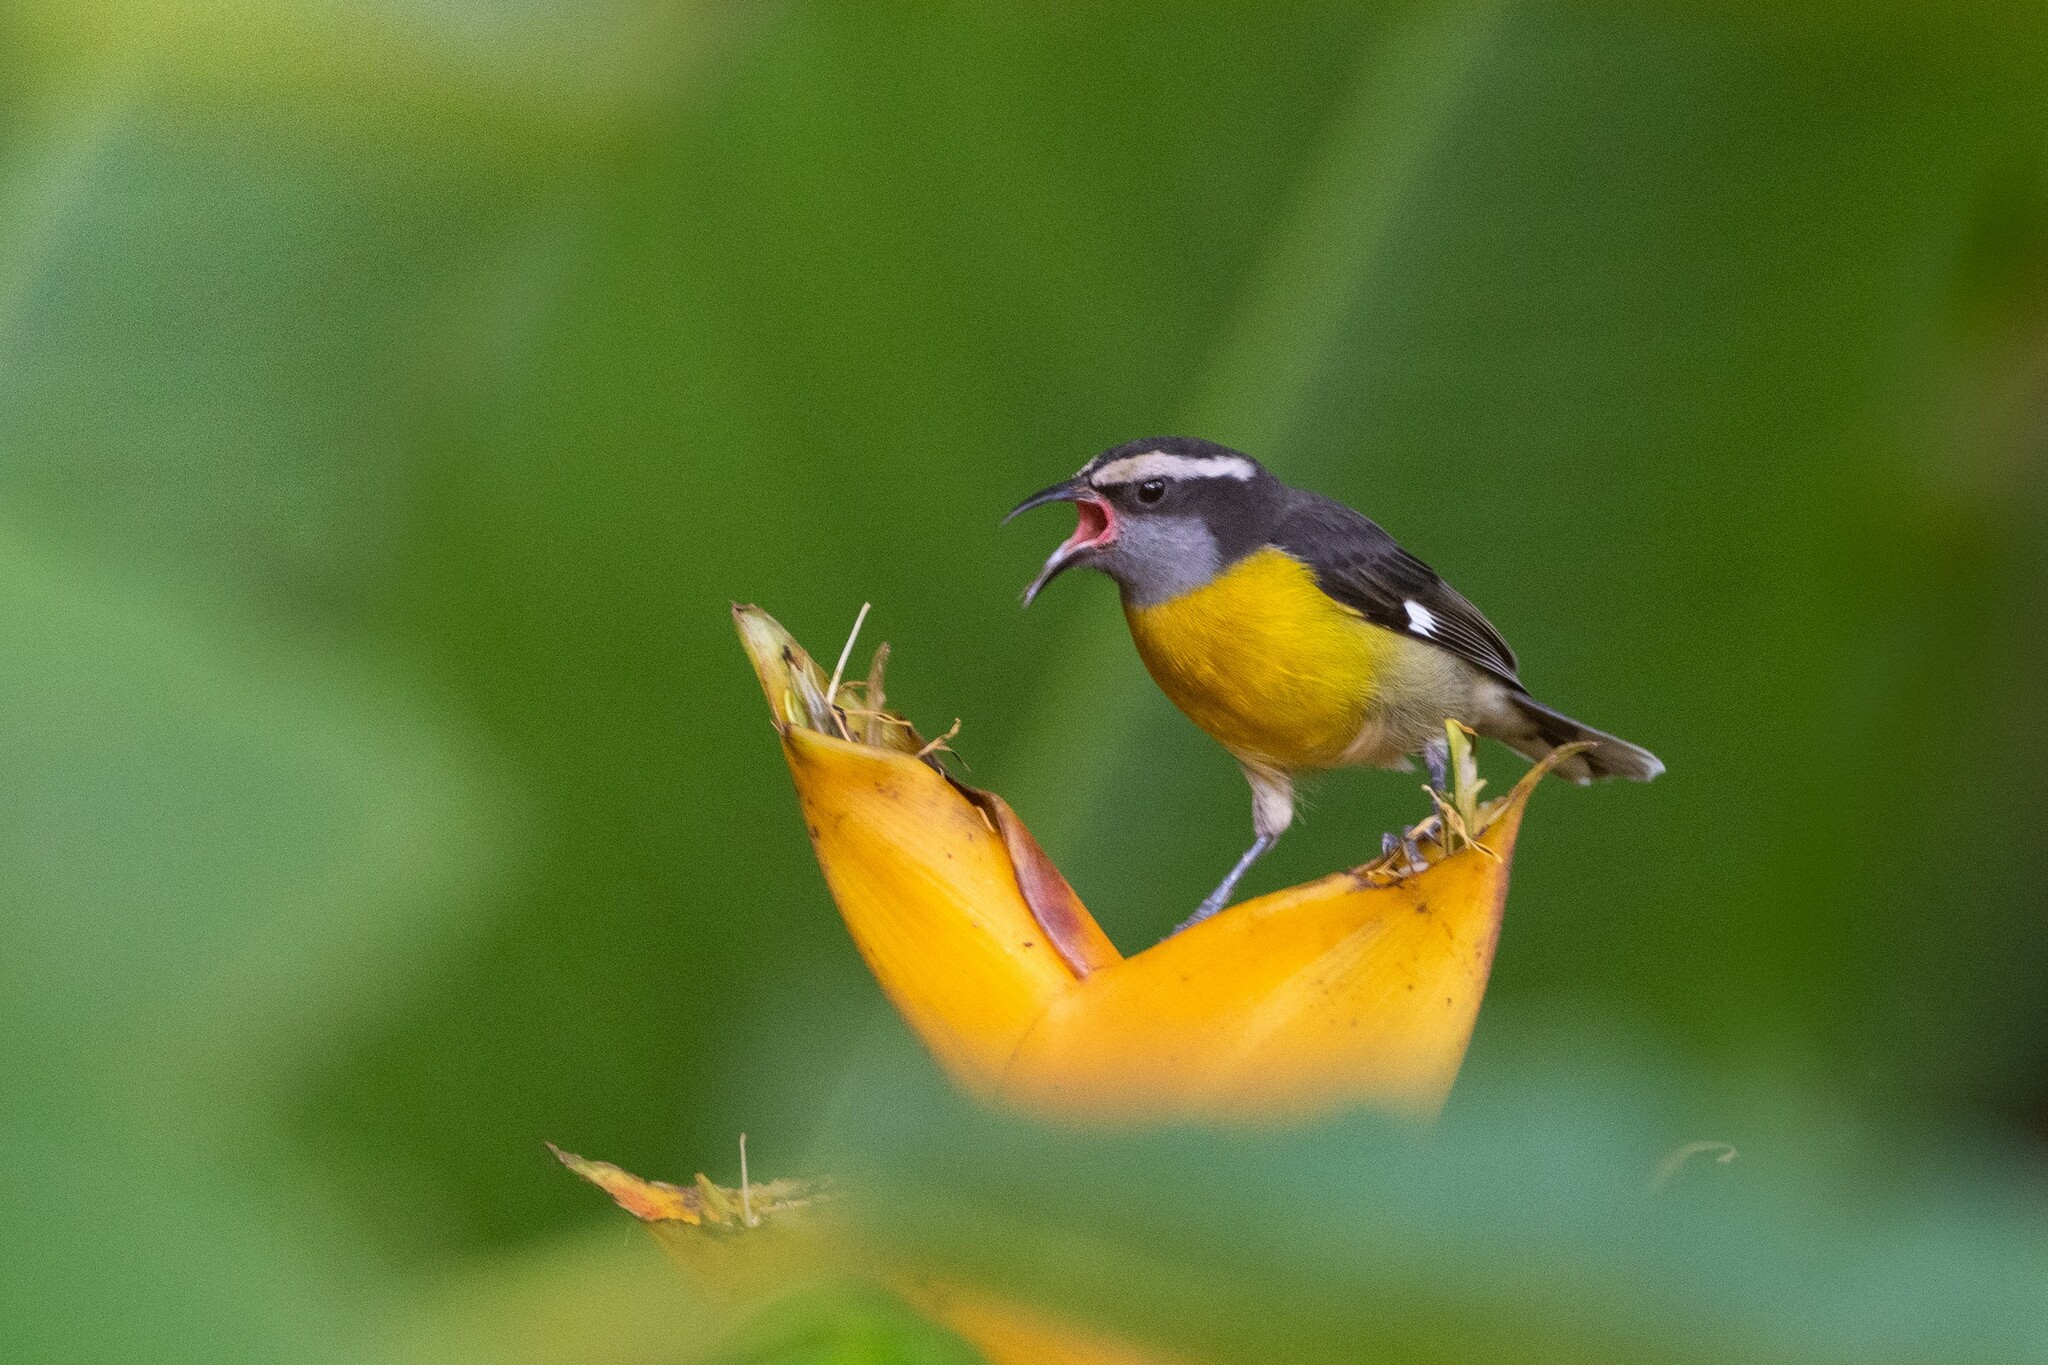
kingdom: Animalia
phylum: Chordata
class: Aves
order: Passeriformes
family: Thraupidae
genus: Coereba
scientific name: Coereba flaveola
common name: Bananaquit
